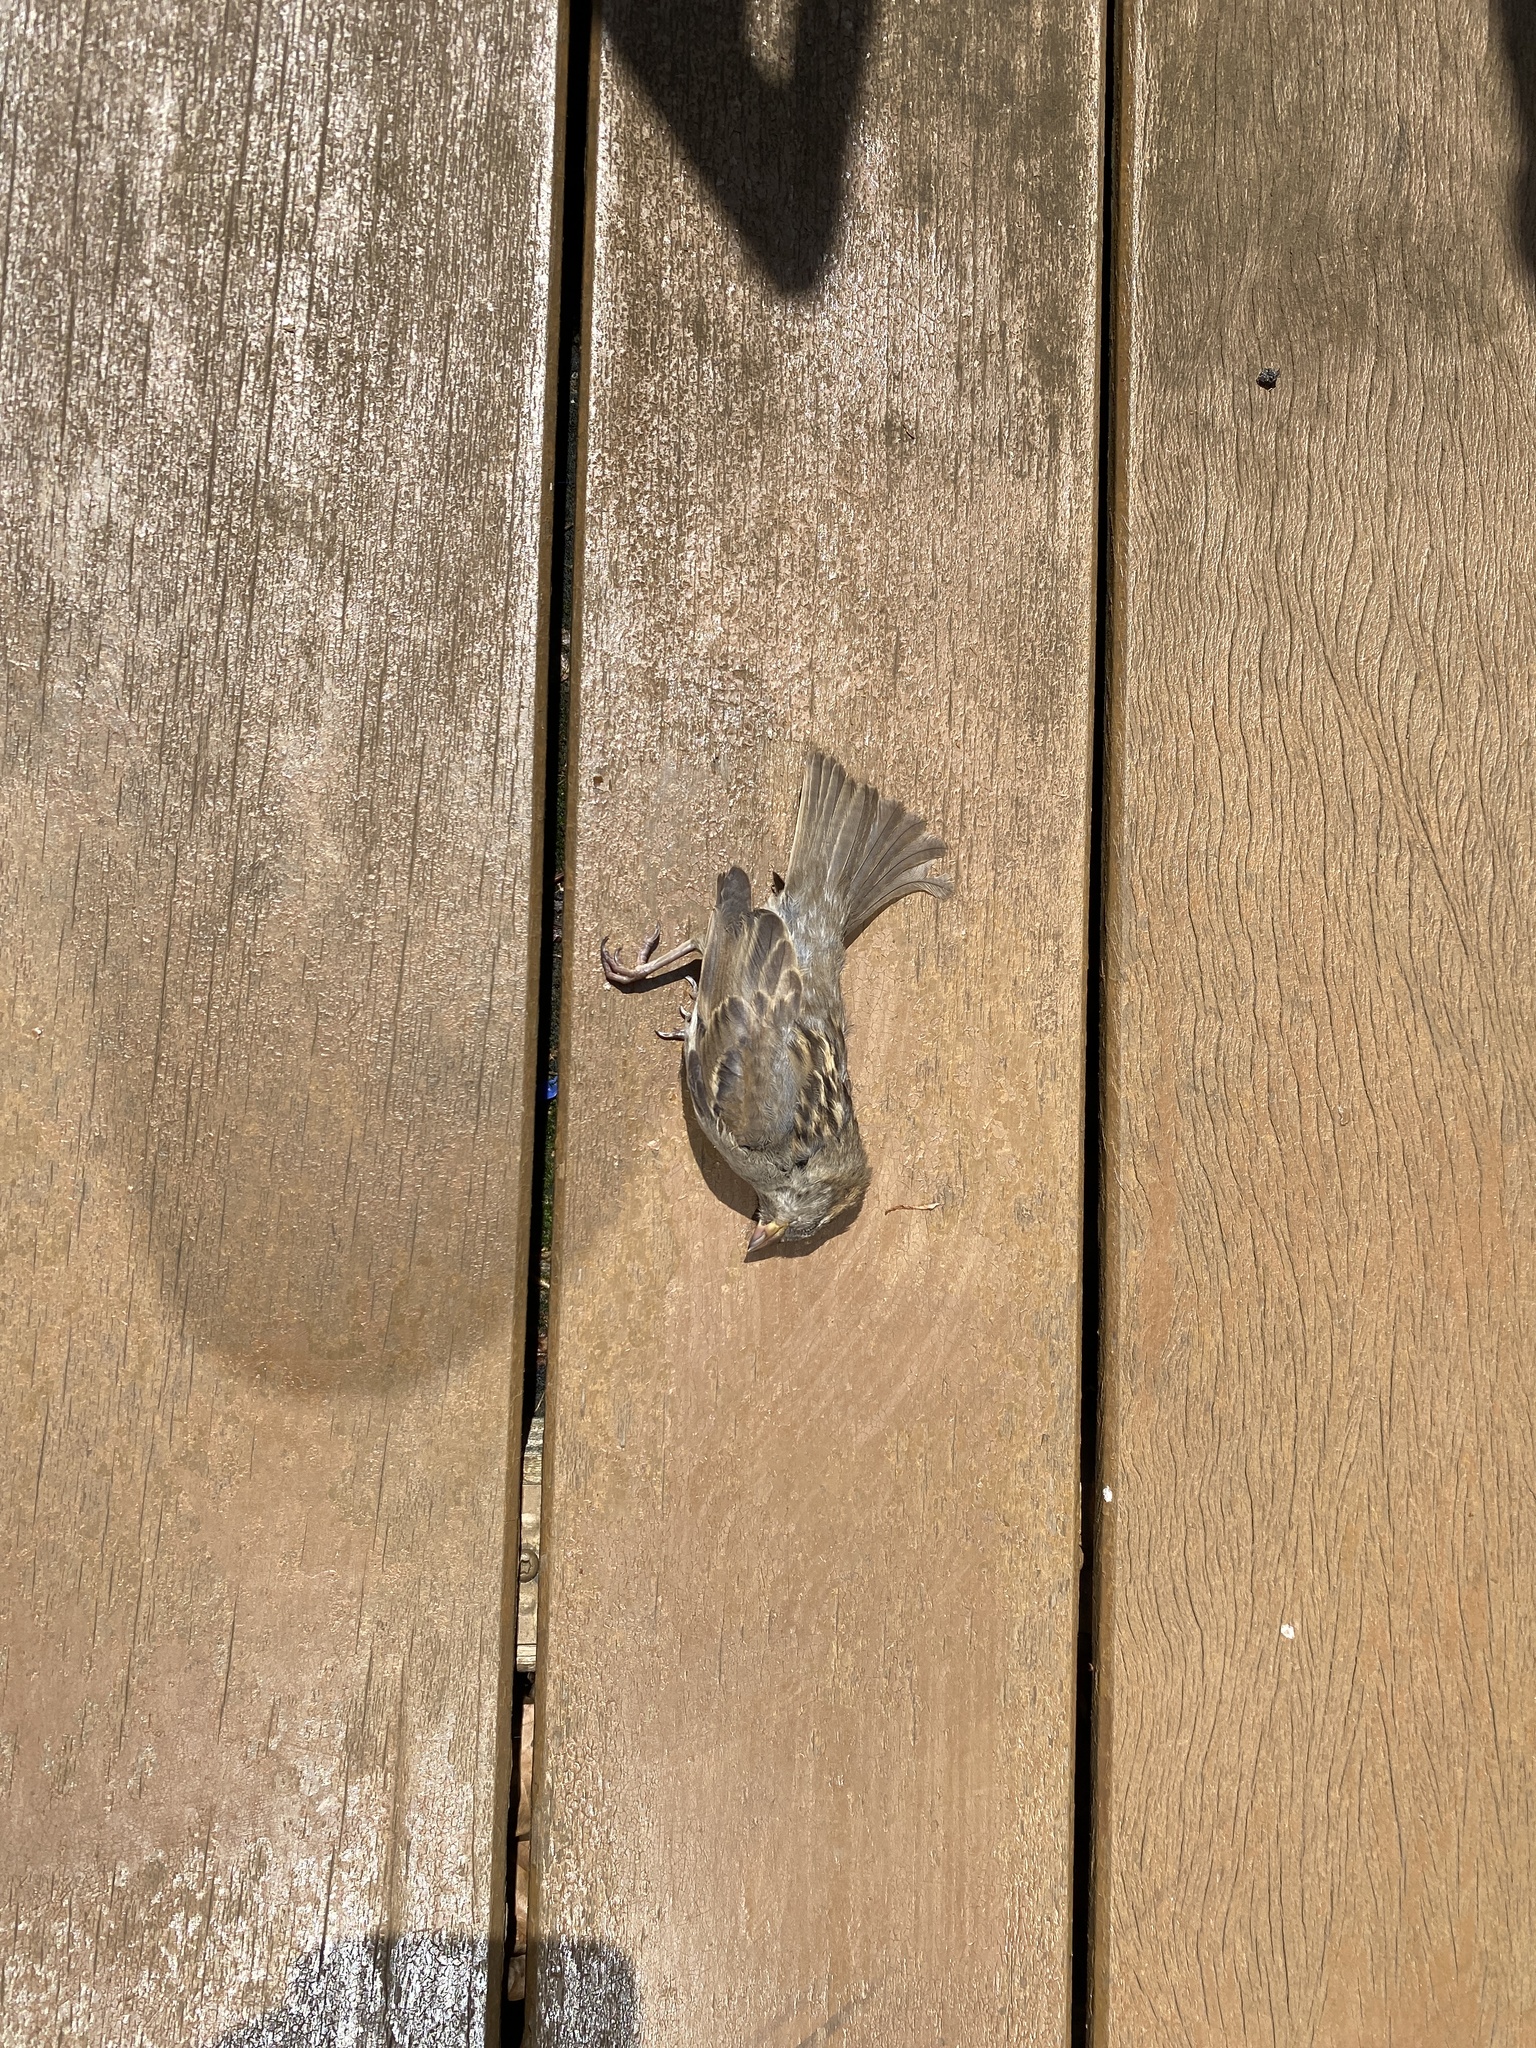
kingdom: Animalia
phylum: Chordata
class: Aves
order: Passeriformes
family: Passeridae
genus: Passer
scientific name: Passer domesticus
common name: House sparrow
